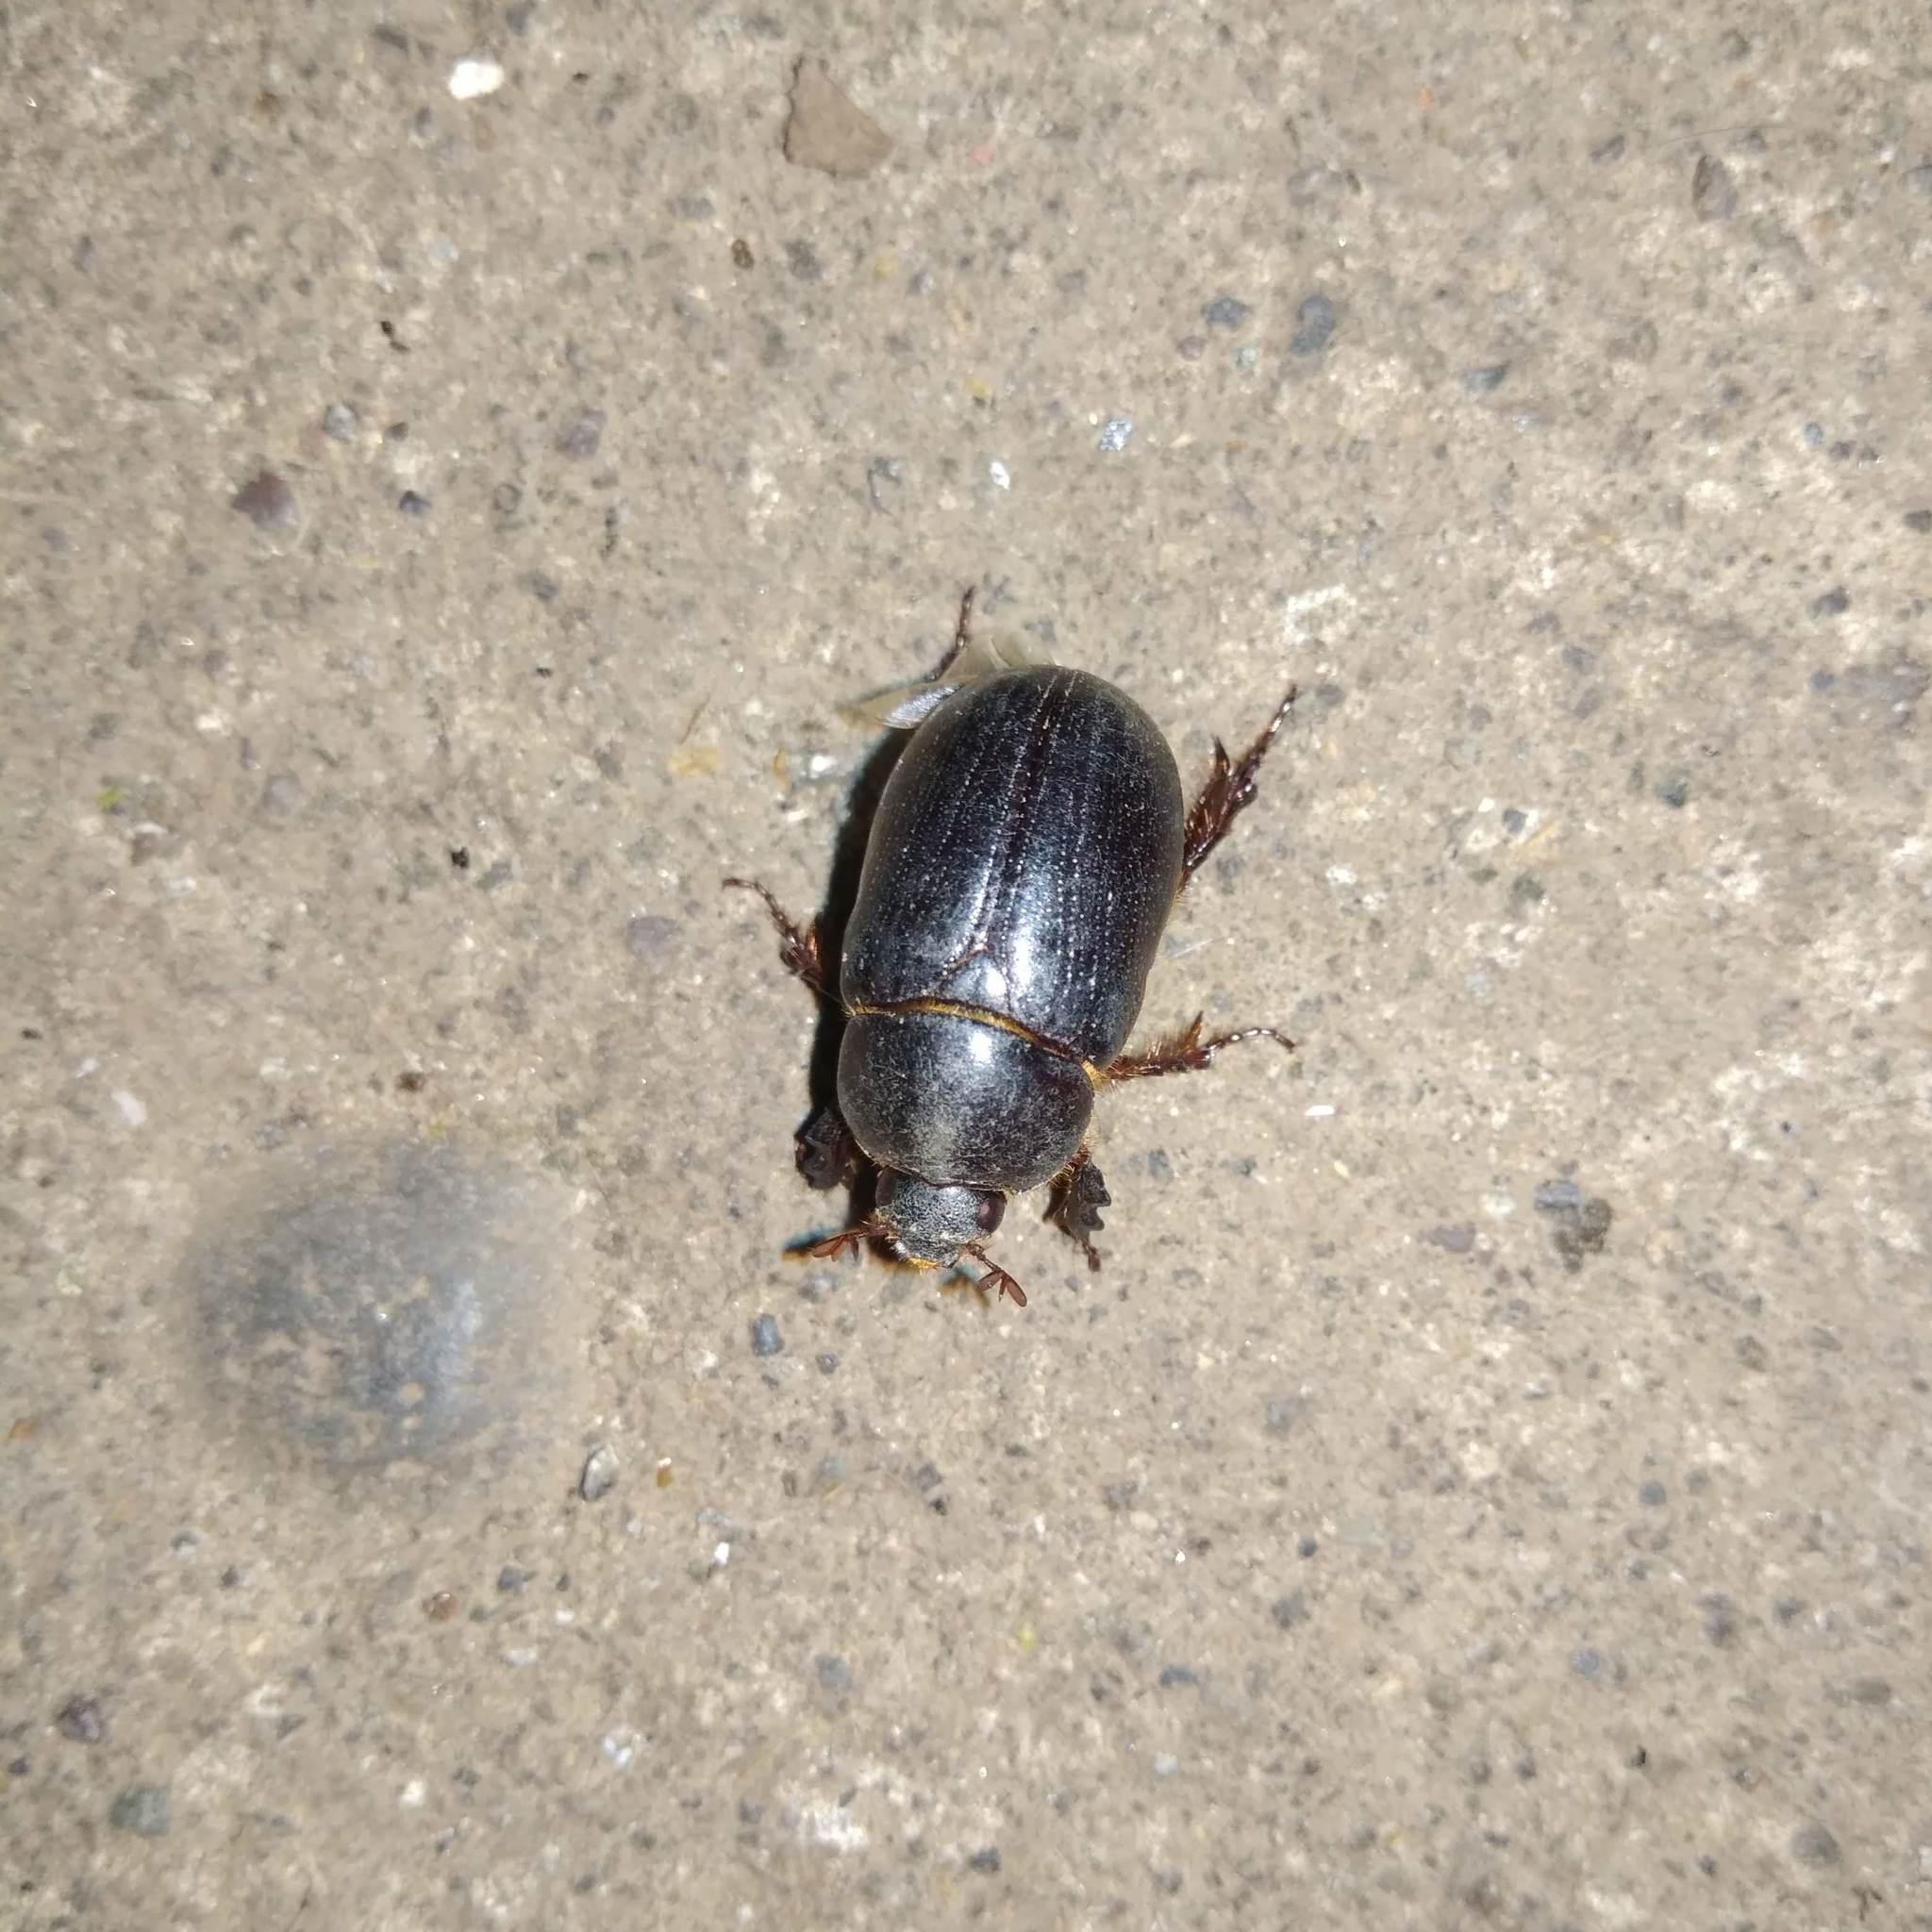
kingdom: Animalia
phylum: Arthropoda
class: Insecta
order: Coleoptera
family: Scarabaeidae
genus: Ligyrus
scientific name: Ligyrus villosus
